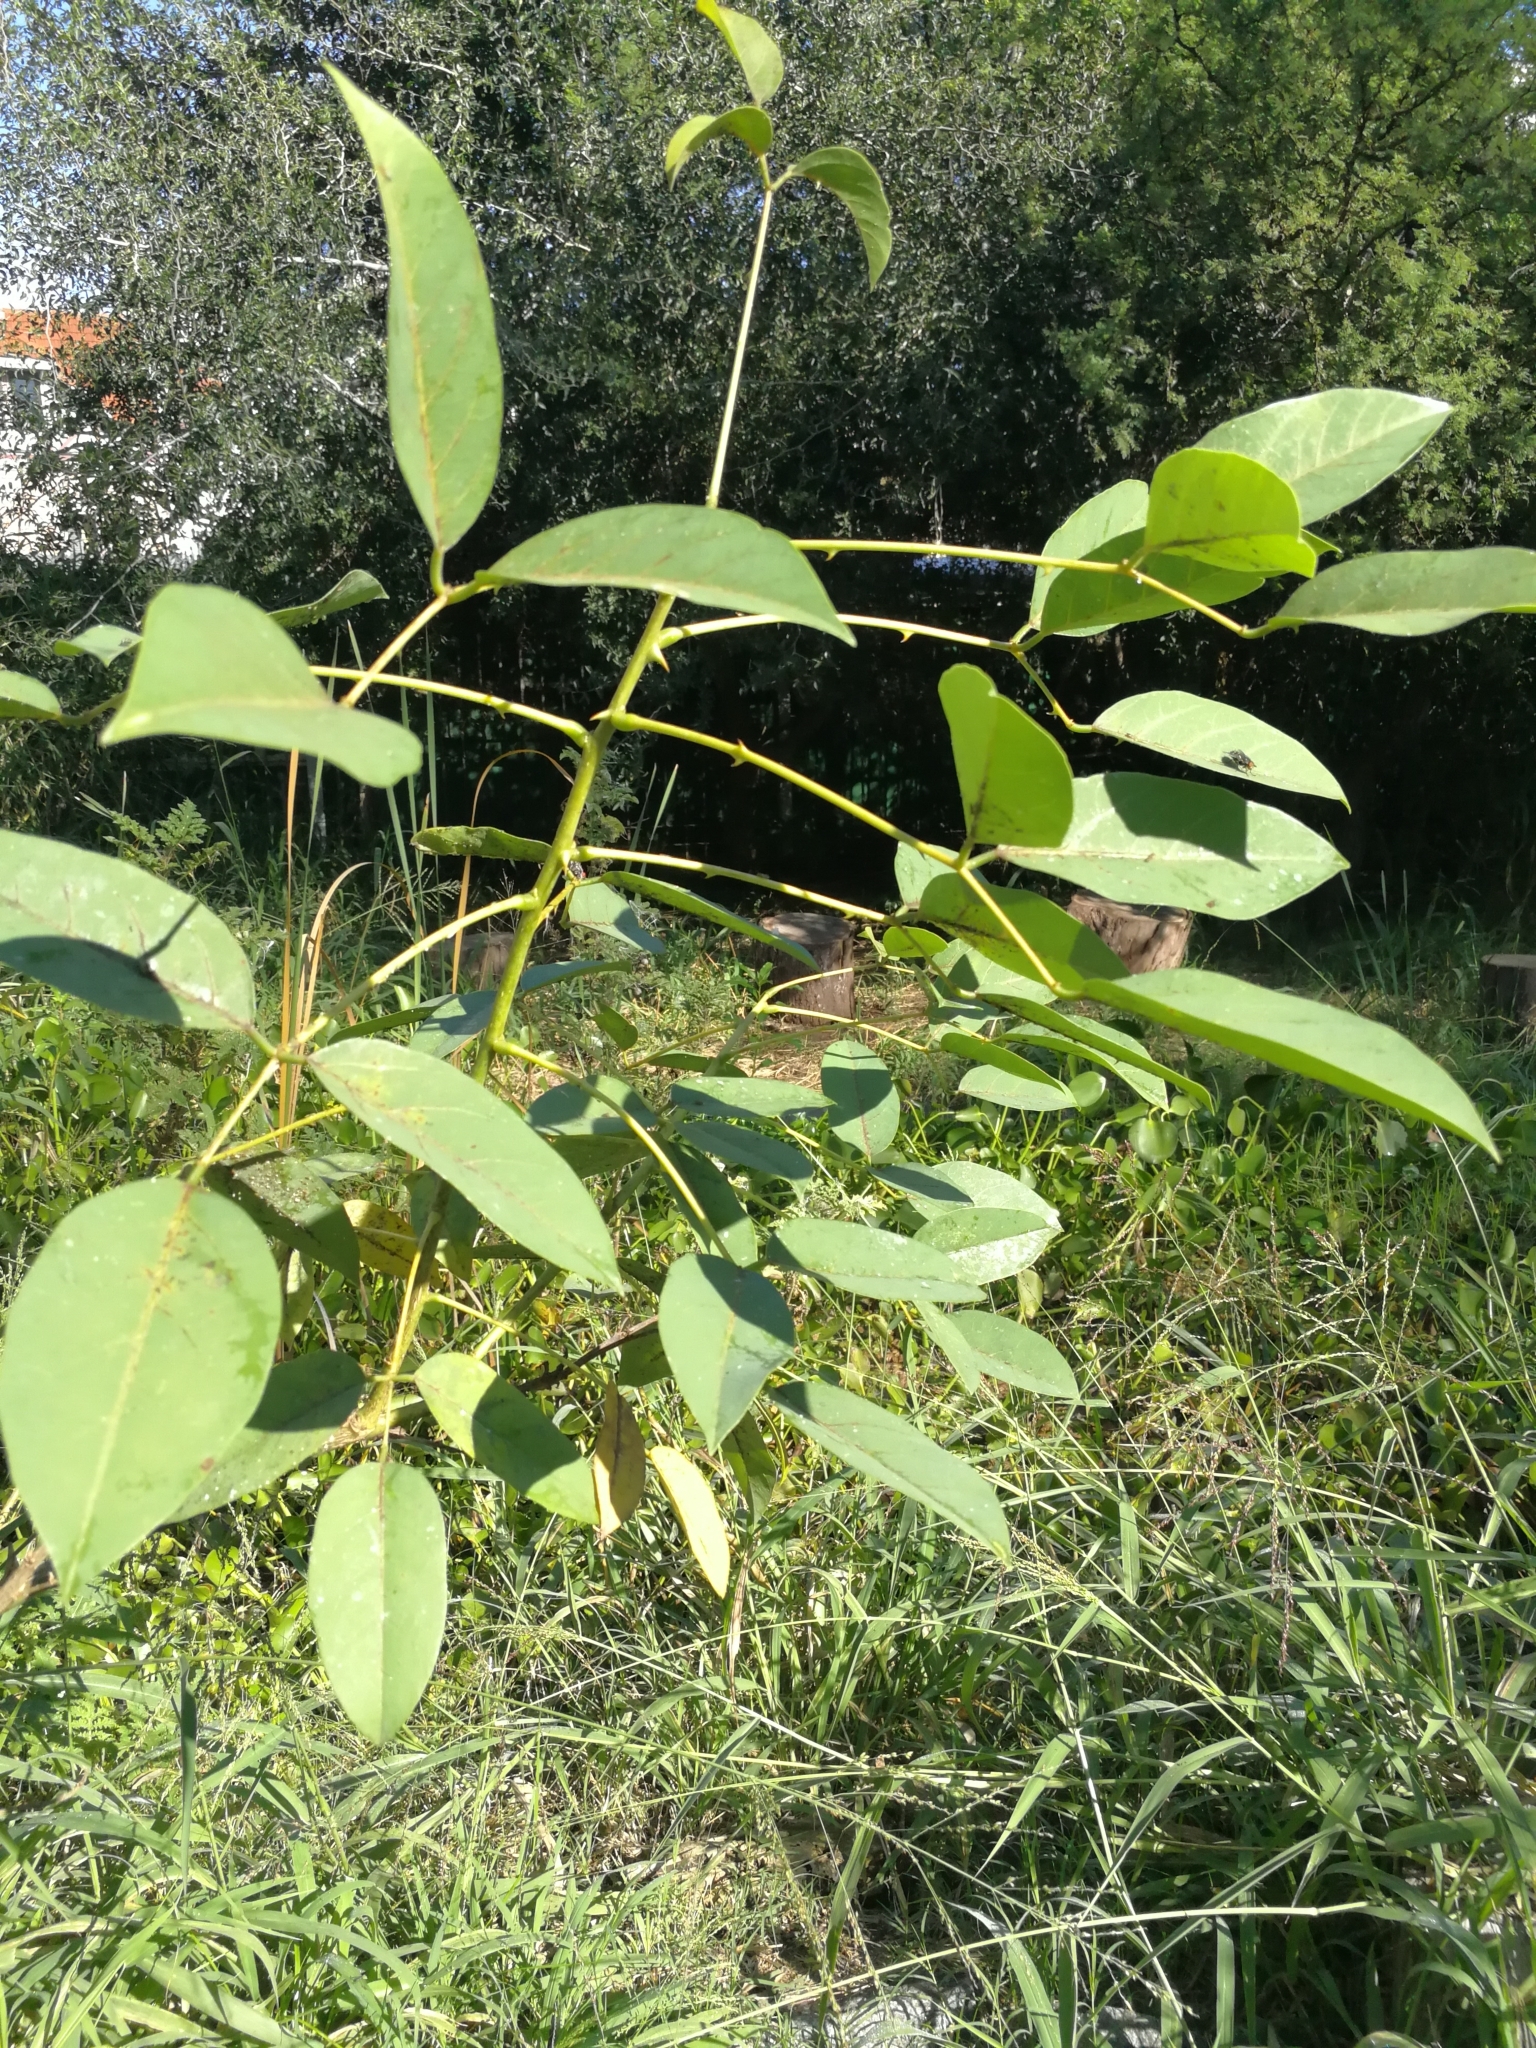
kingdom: Plantae
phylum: Tracheophyta
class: Magnoliopsida
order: Fabales
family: Fabaceae
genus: Erythrina
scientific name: Erythrina crista-galli
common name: Cockspur coral tree
